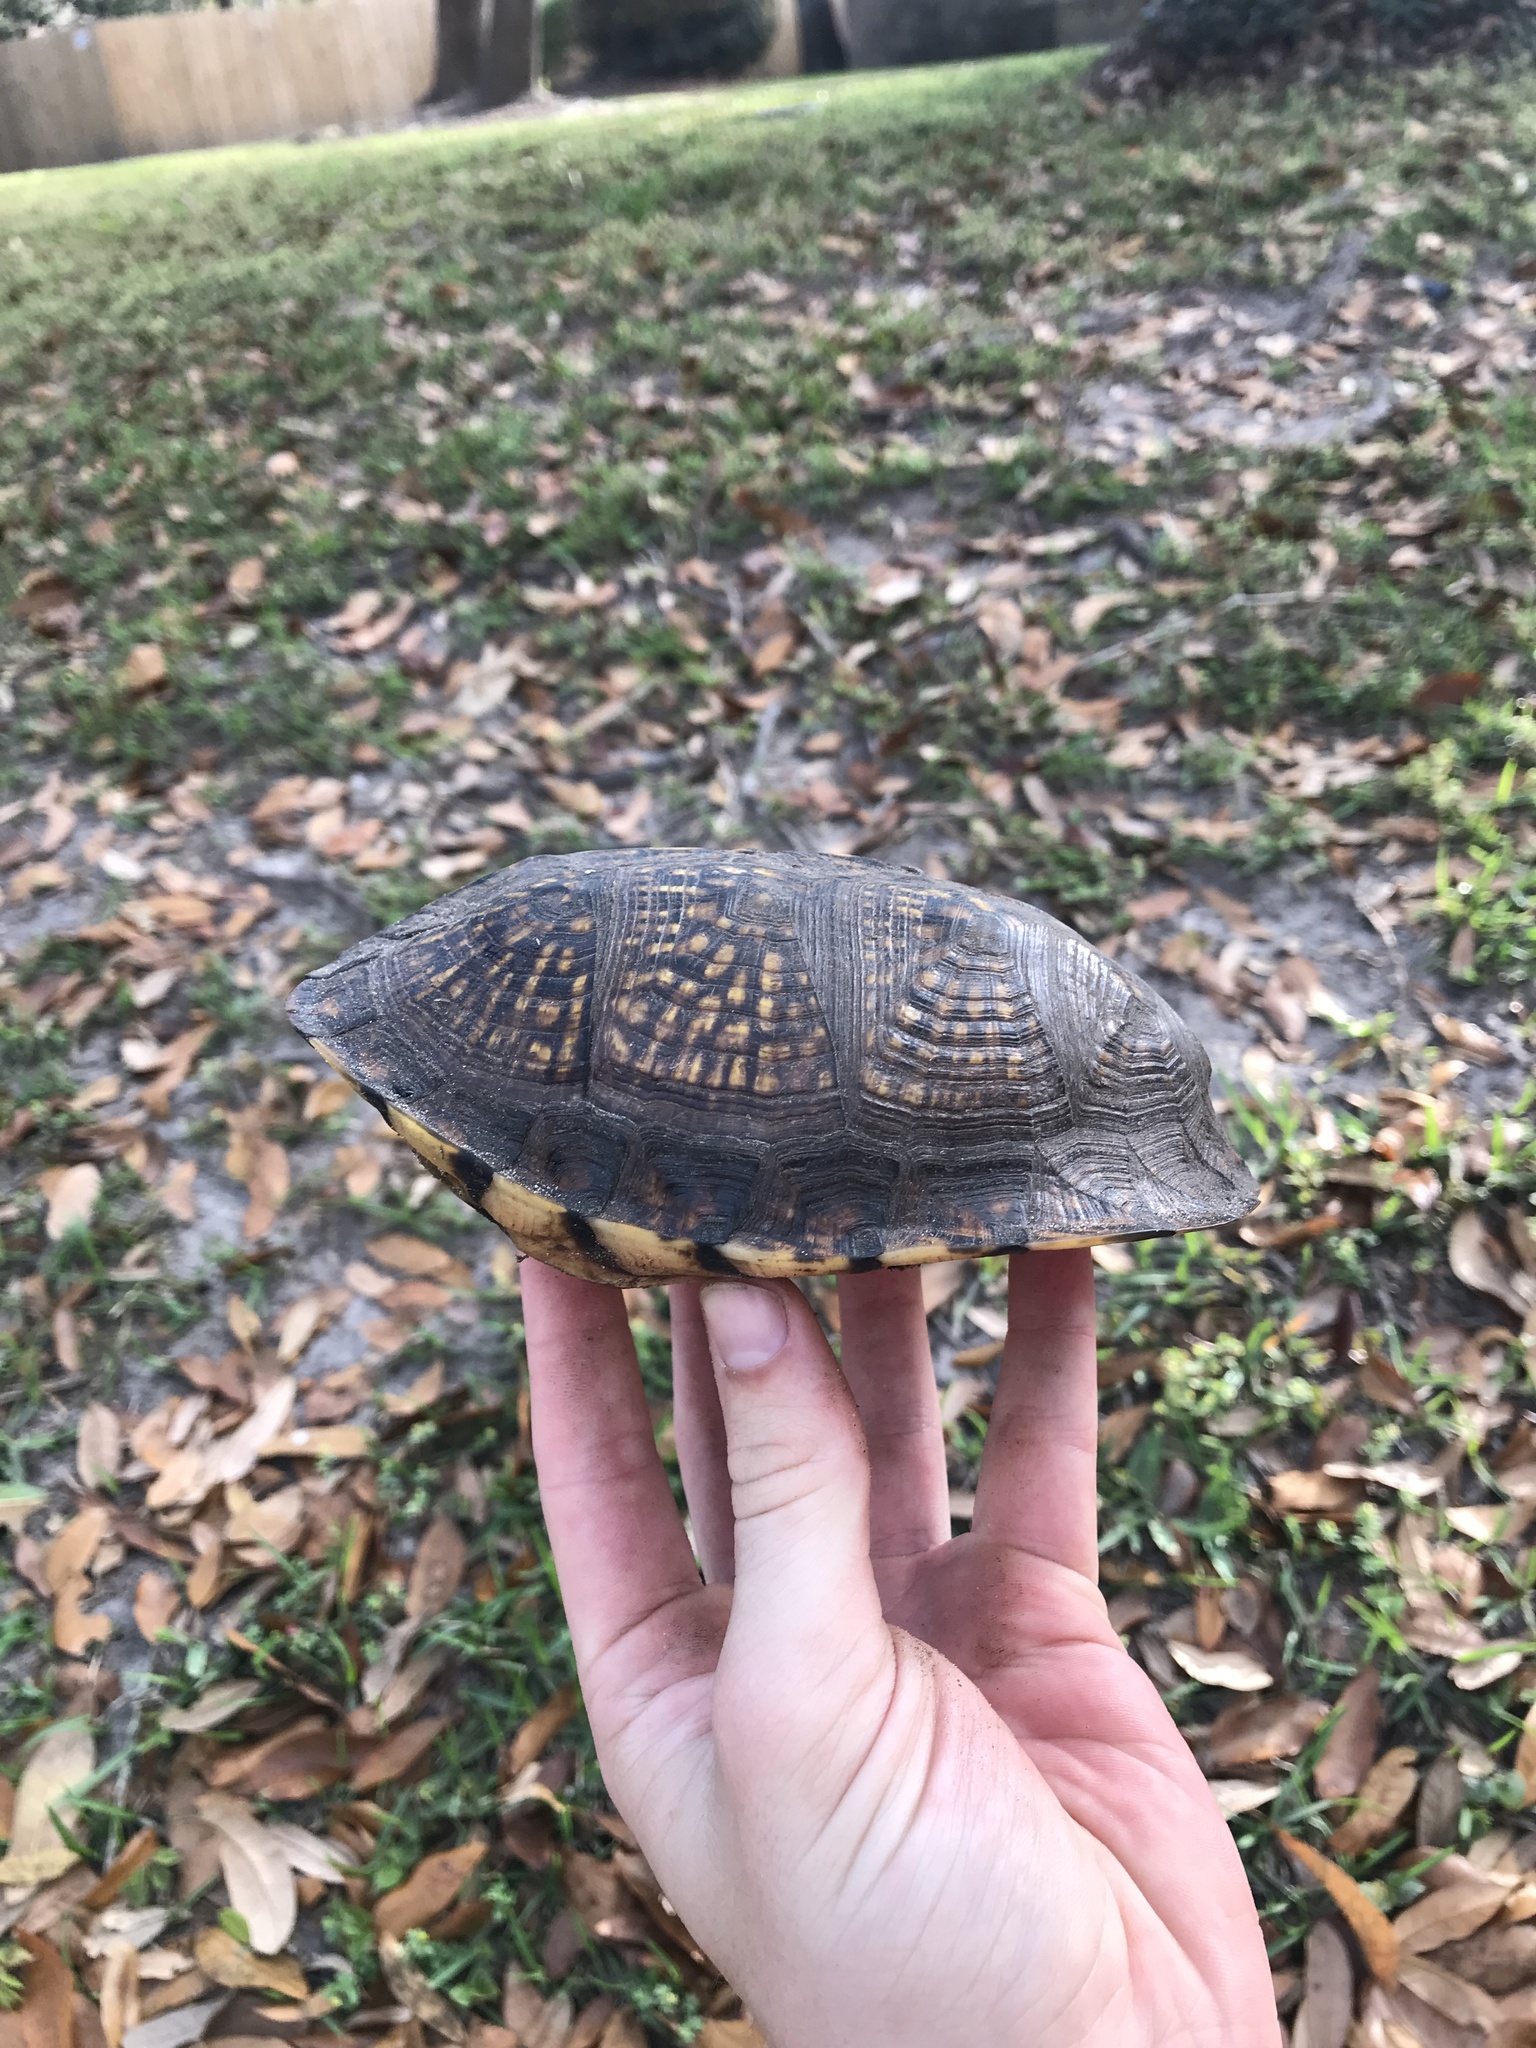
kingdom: Animalia
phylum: Chordata
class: Testudines
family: Emydidae
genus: Terrapene
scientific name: Terrapene carolina
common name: Common box turtle
